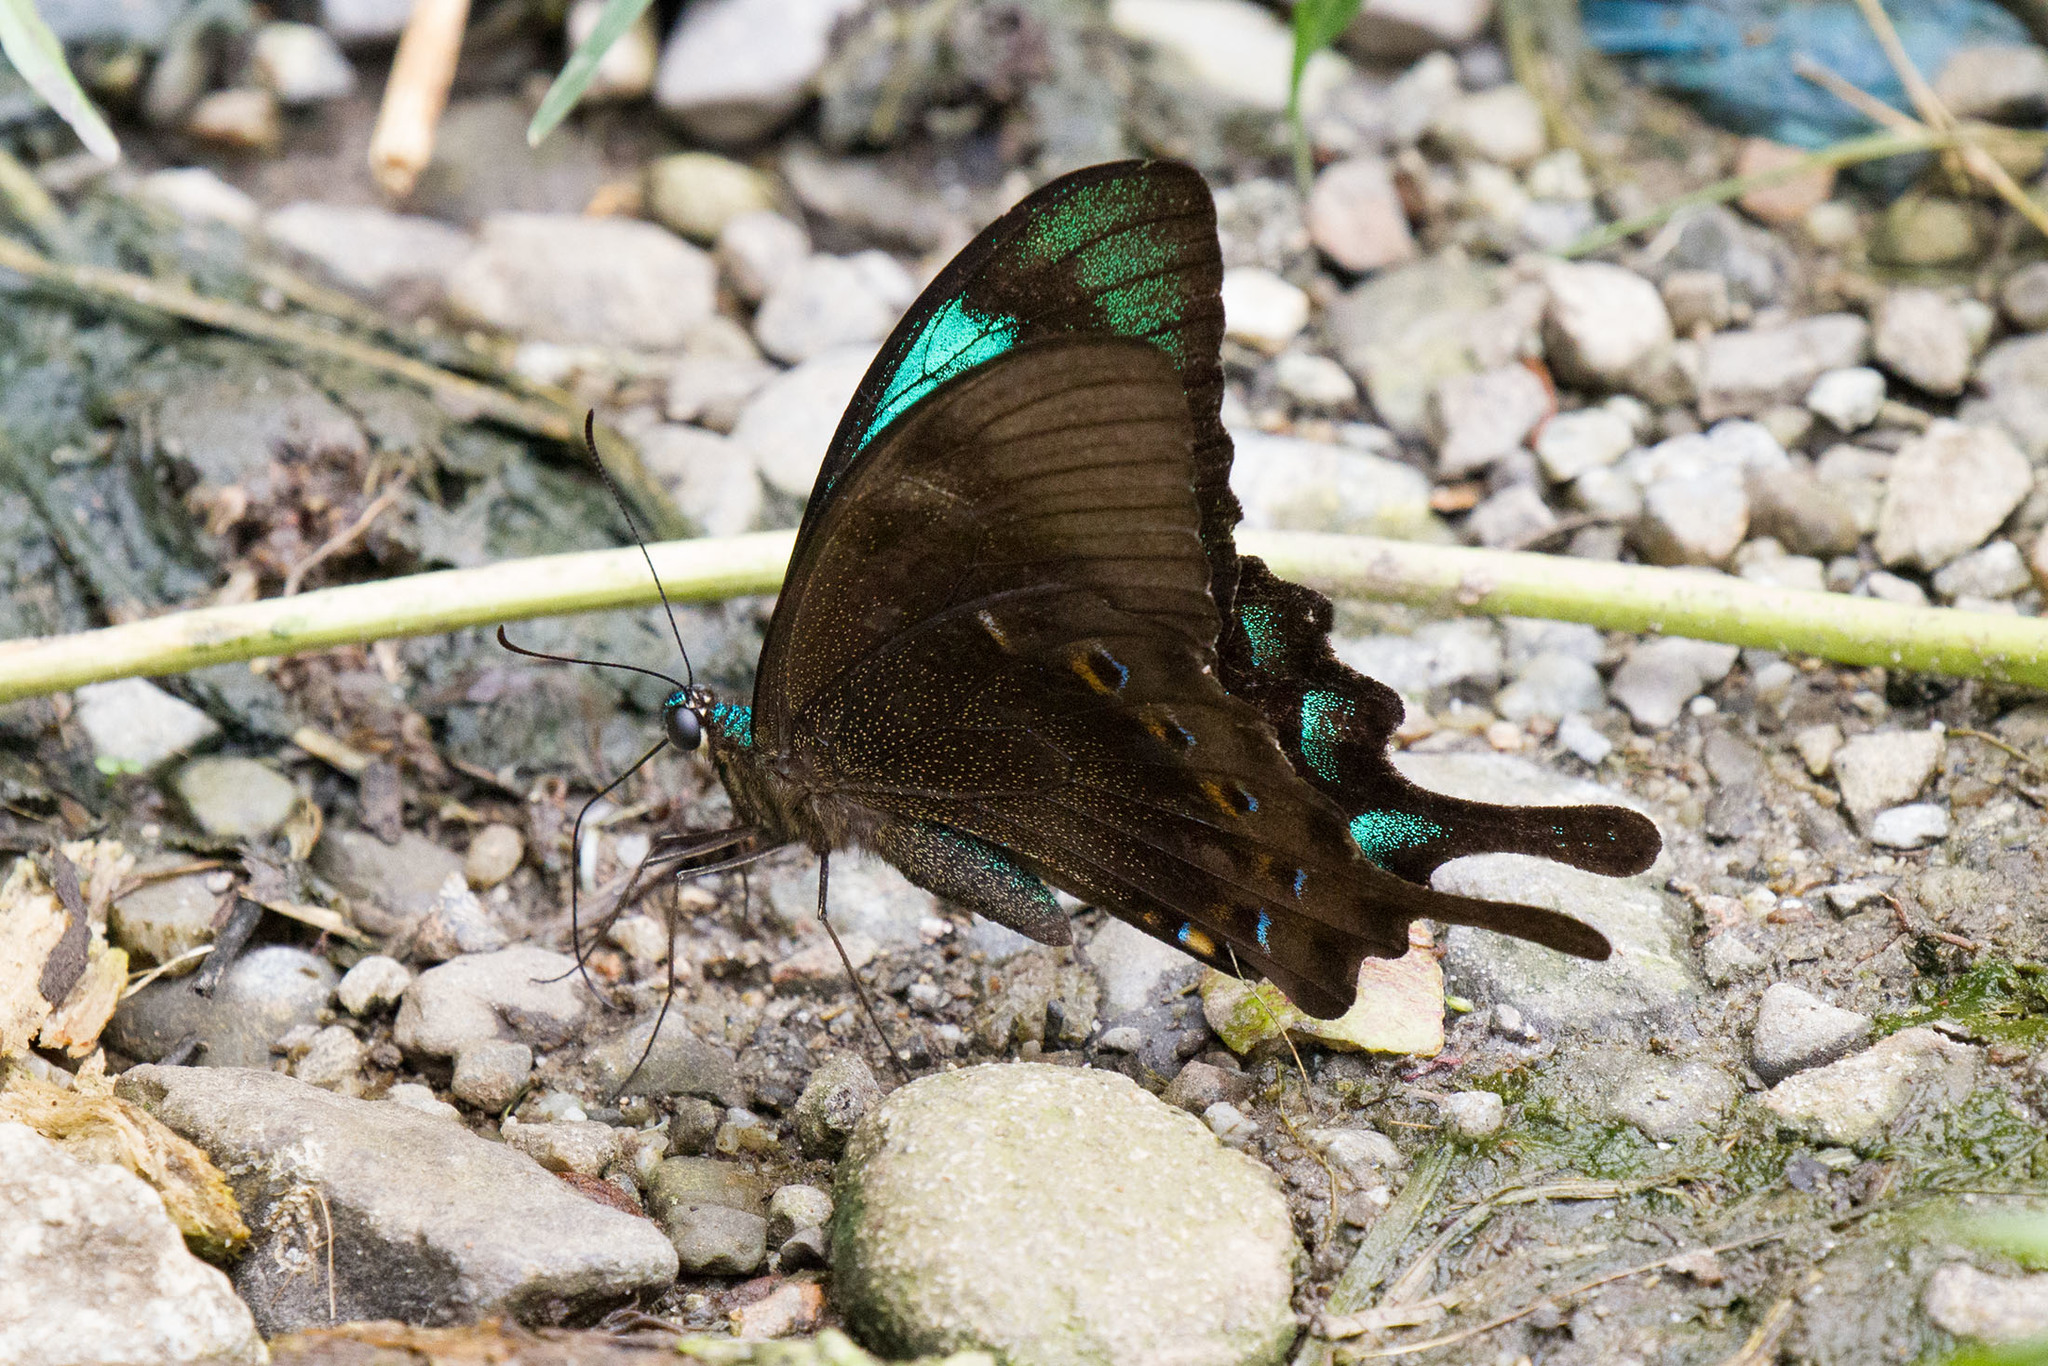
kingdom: Animalia
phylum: Arthropoda
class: Insecta
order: Lepidoptera
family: Papilionidae
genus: Papilio
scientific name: Papilio lorquinianus
